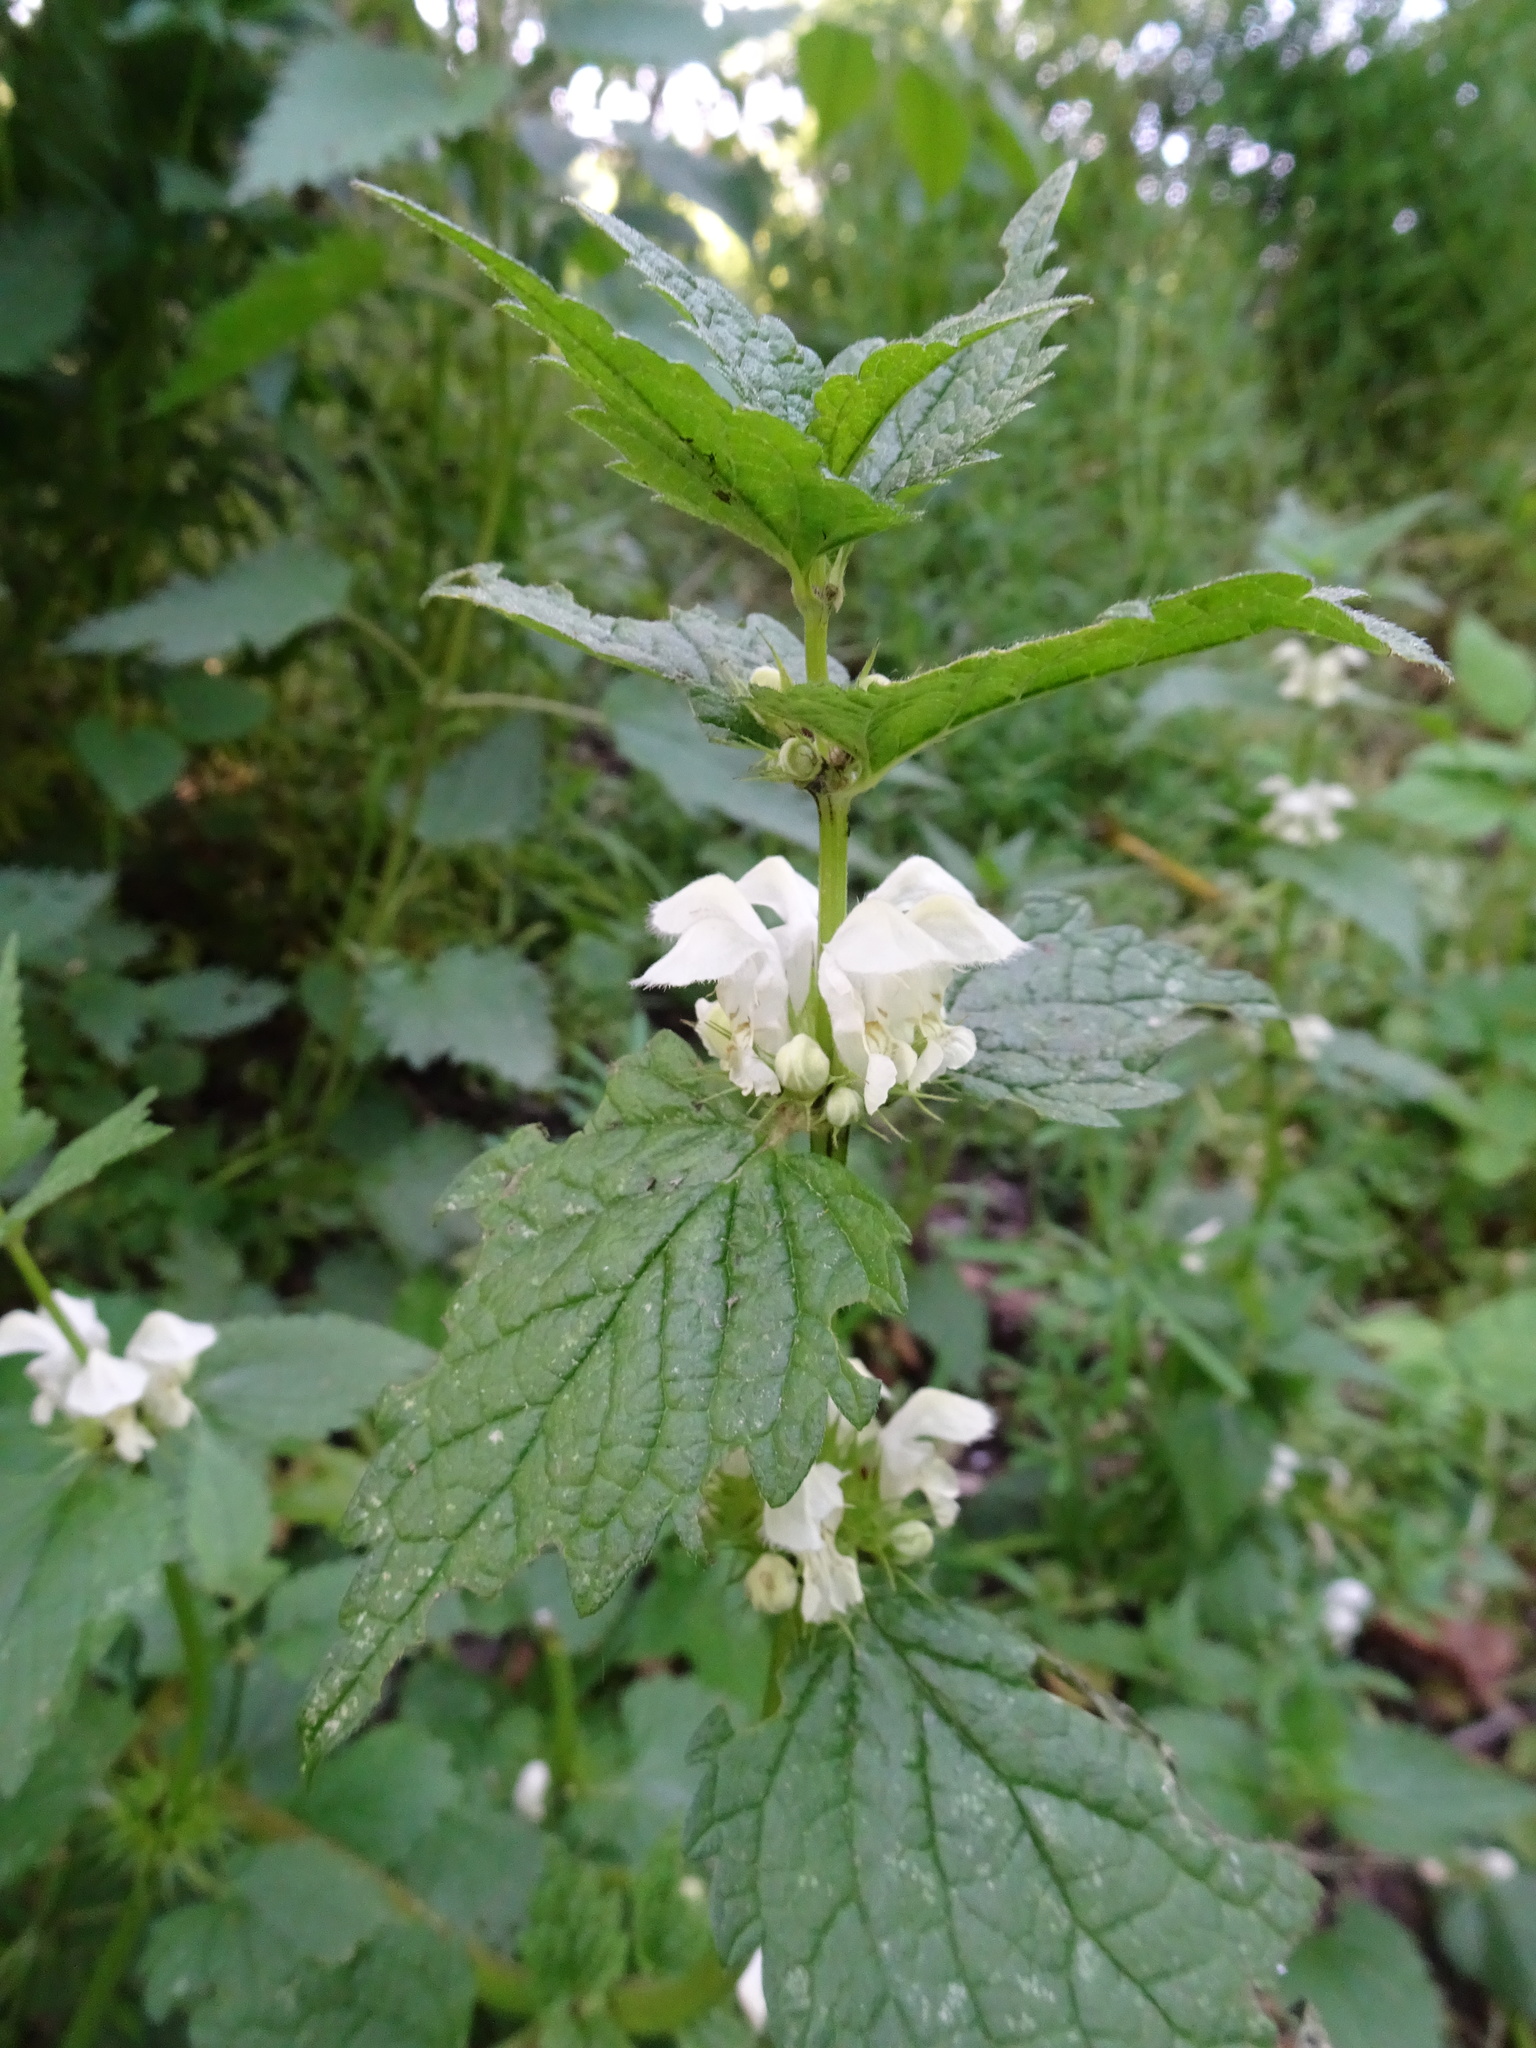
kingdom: Plantae
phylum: Tracheophyta
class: Magnoliopsida
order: Lamiales
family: Lamiaceae
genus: Lamium
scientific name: Lamium album
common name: White dead-nettle
